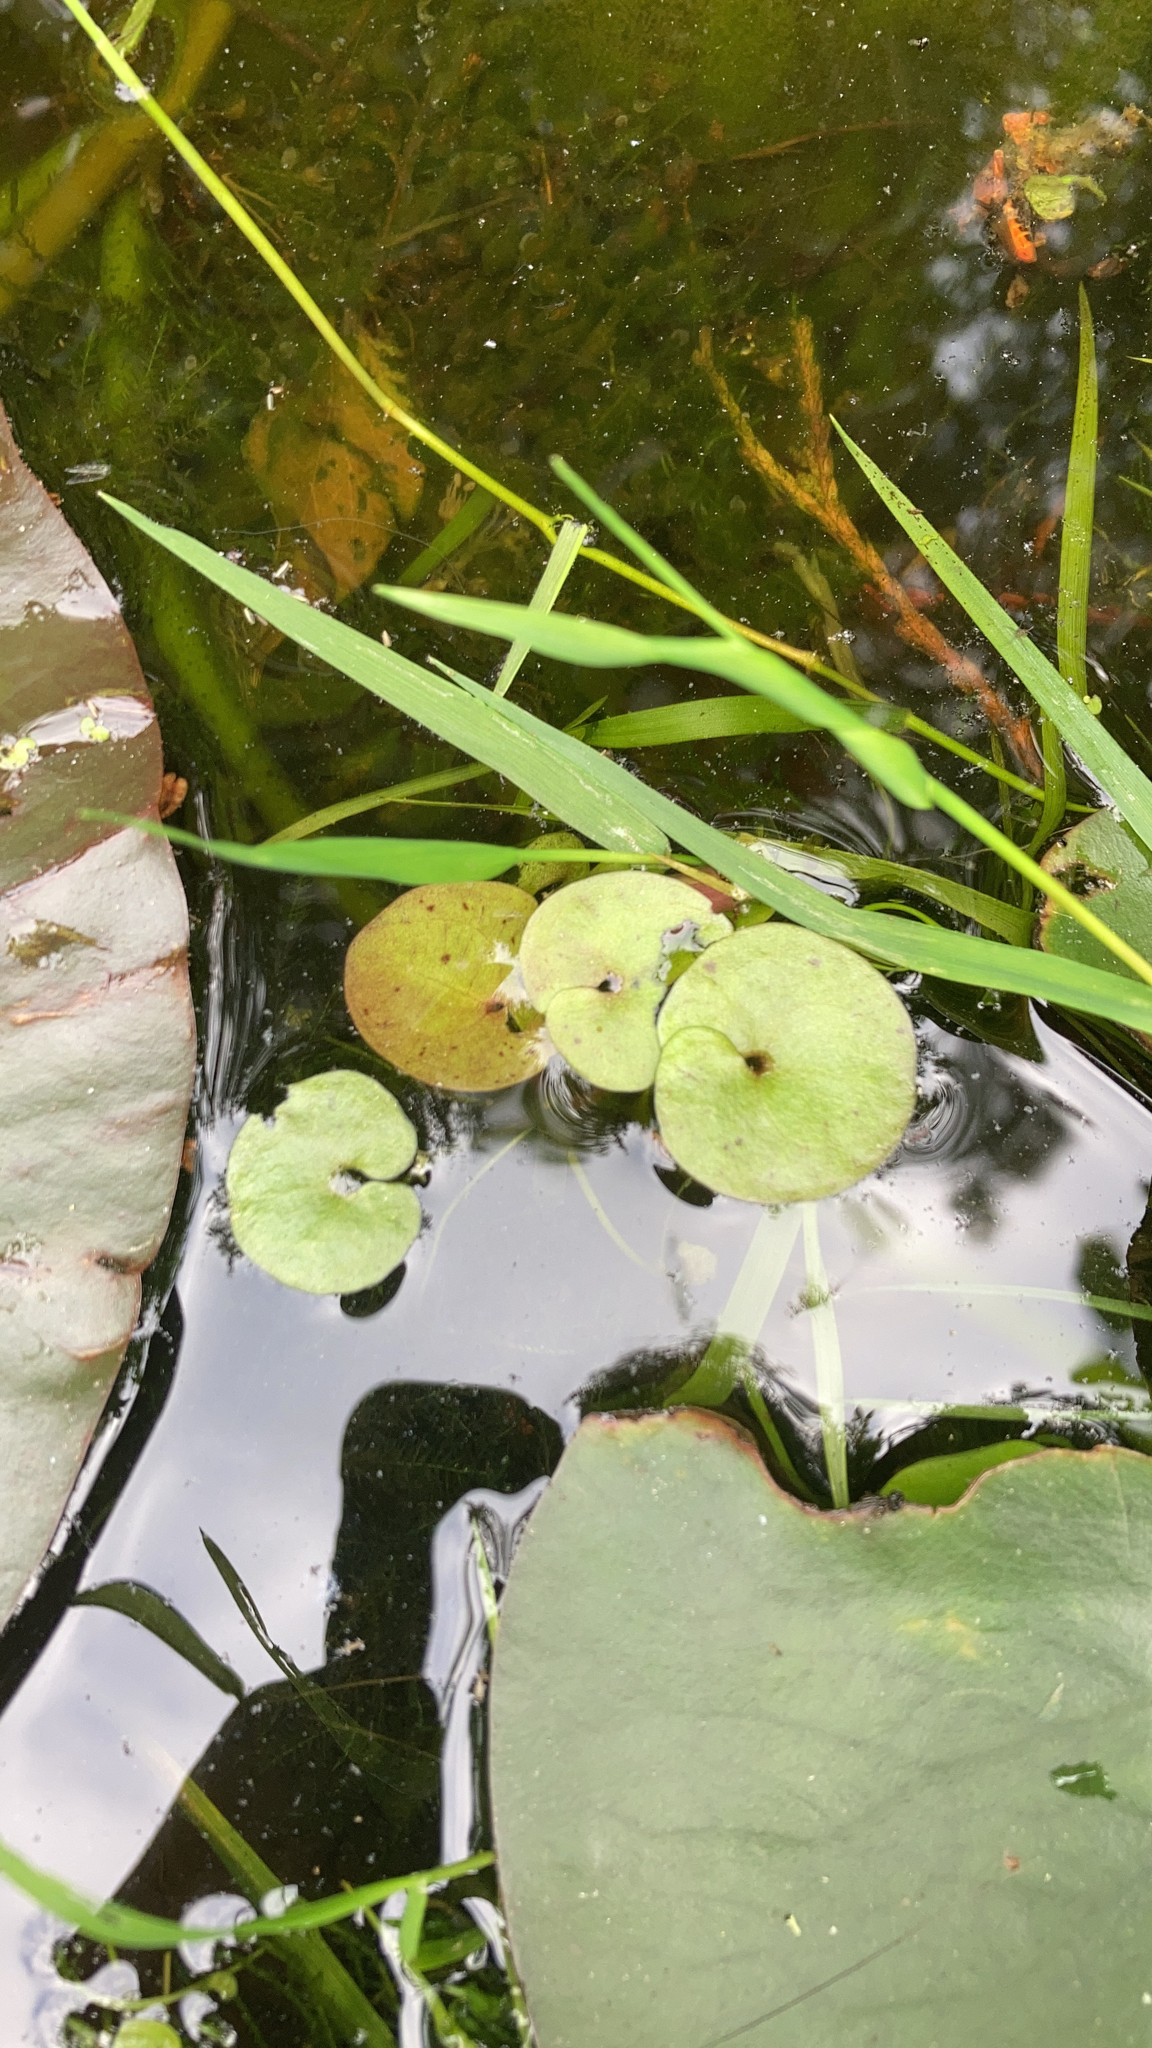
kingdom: Plantae
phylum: Tracheophyta
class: Liliopsida
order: Alismatales
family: Hydrocharitaceae
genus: Hydrocharis
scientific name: Hydrocharis morsus-ranae
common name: Frogbit
